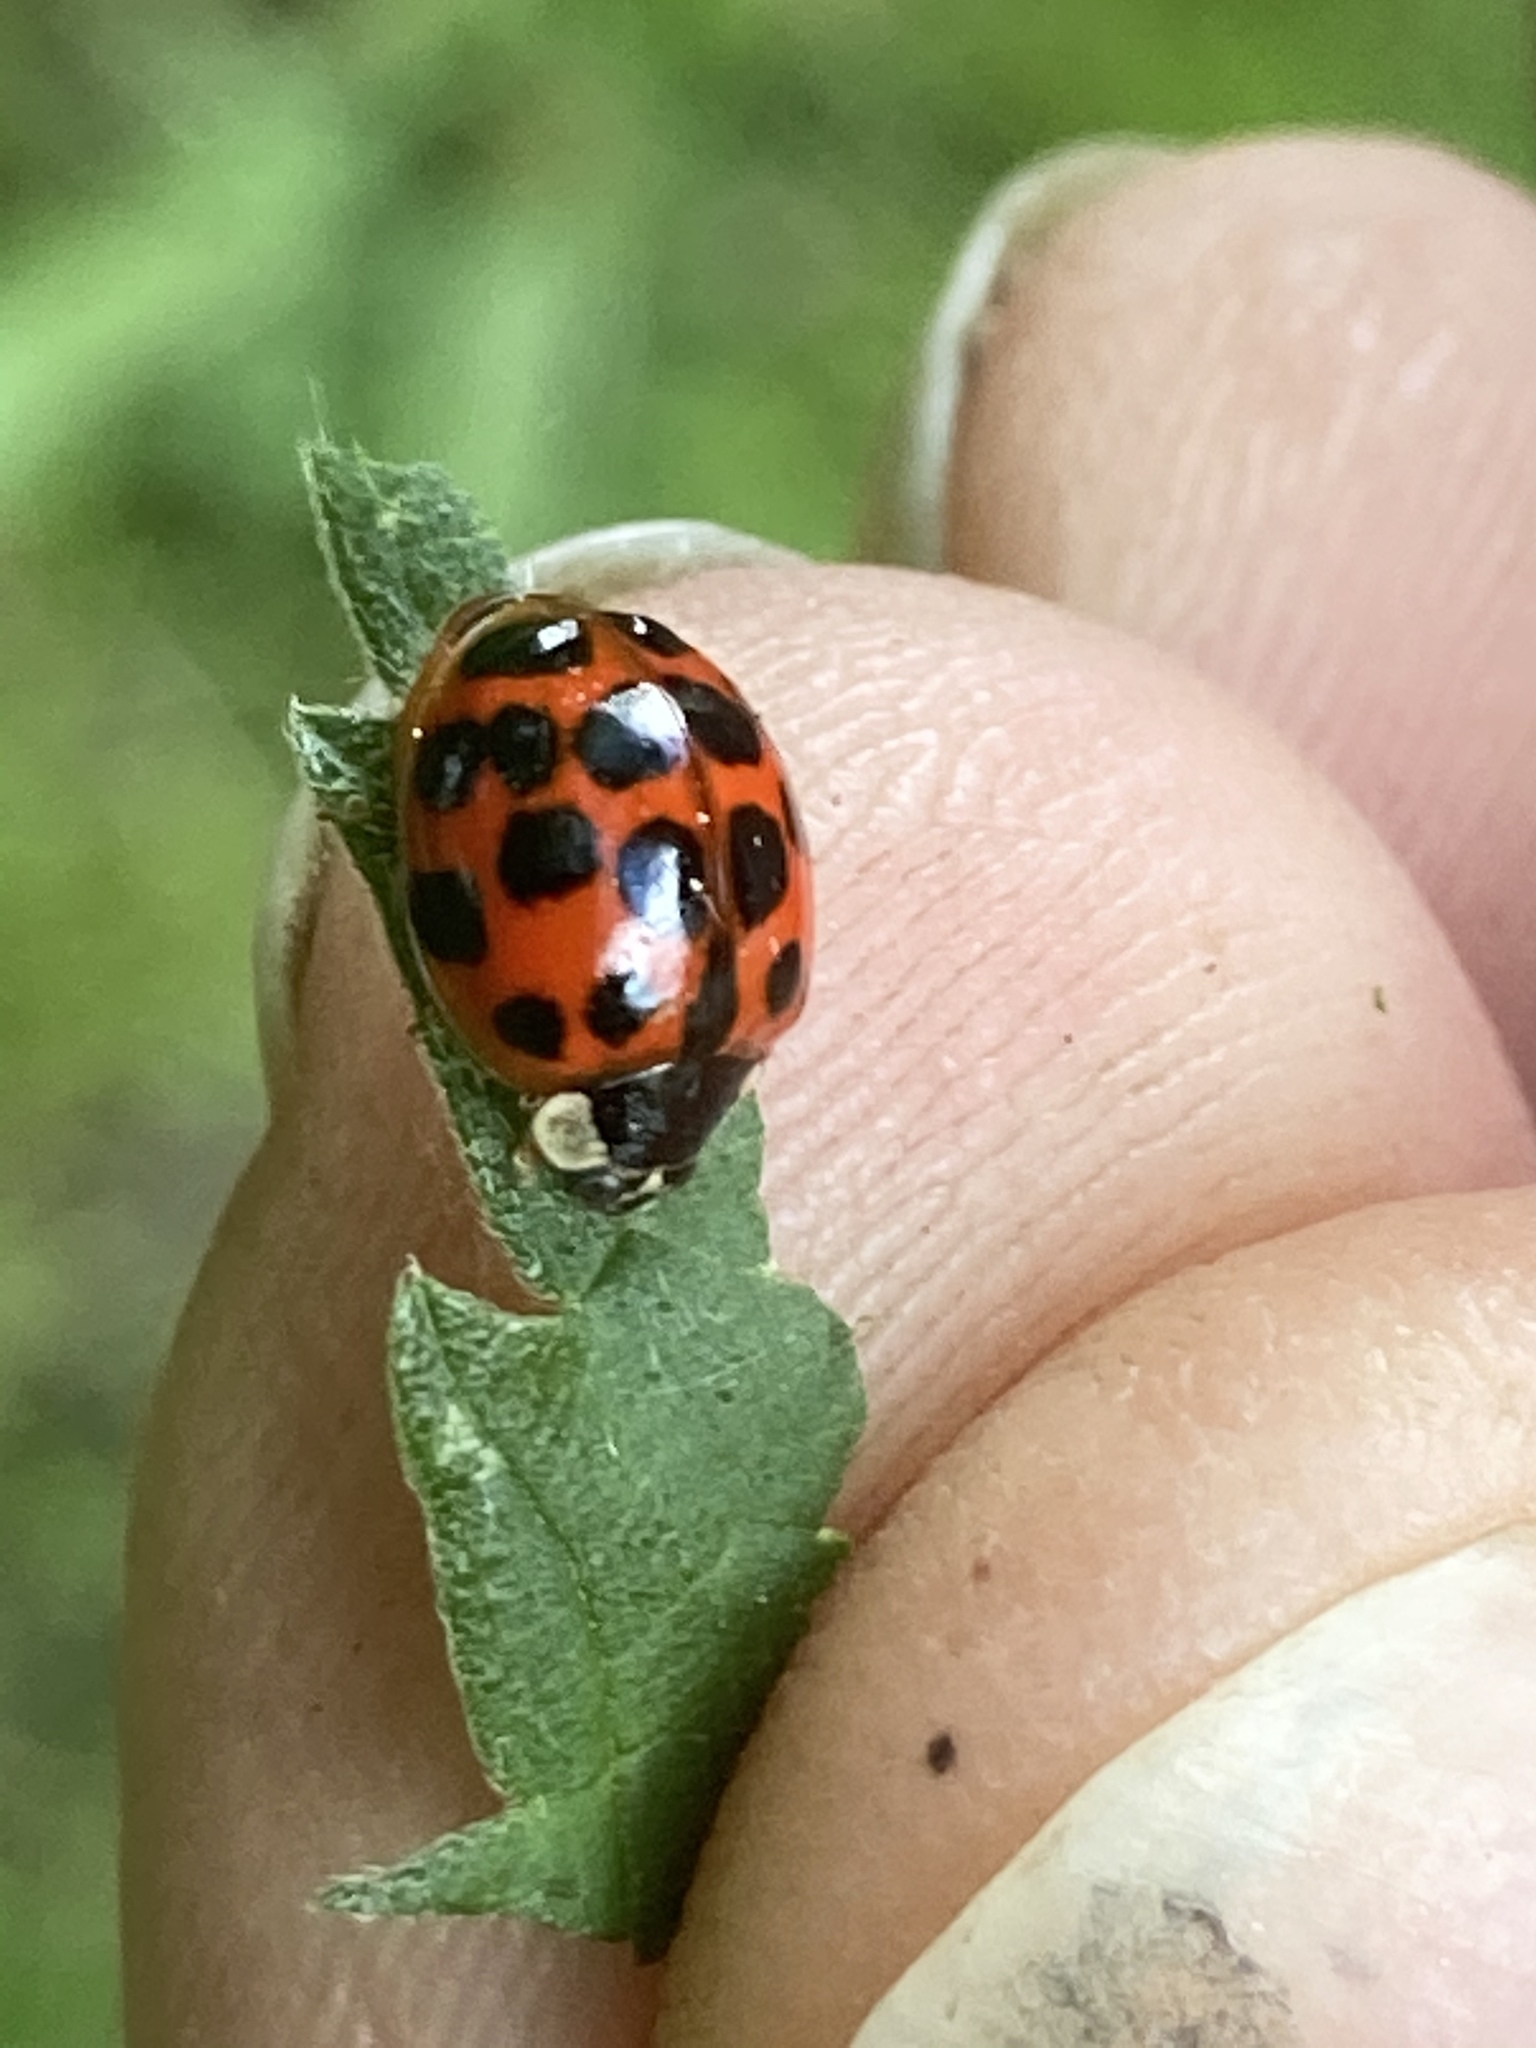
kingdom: Animalia
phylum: Arthropoda
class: Insecta
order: Coleoptera
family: Coccinellidae
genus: Harmonia
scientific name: Harmonia axyridis
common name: Harlequin ladybird
